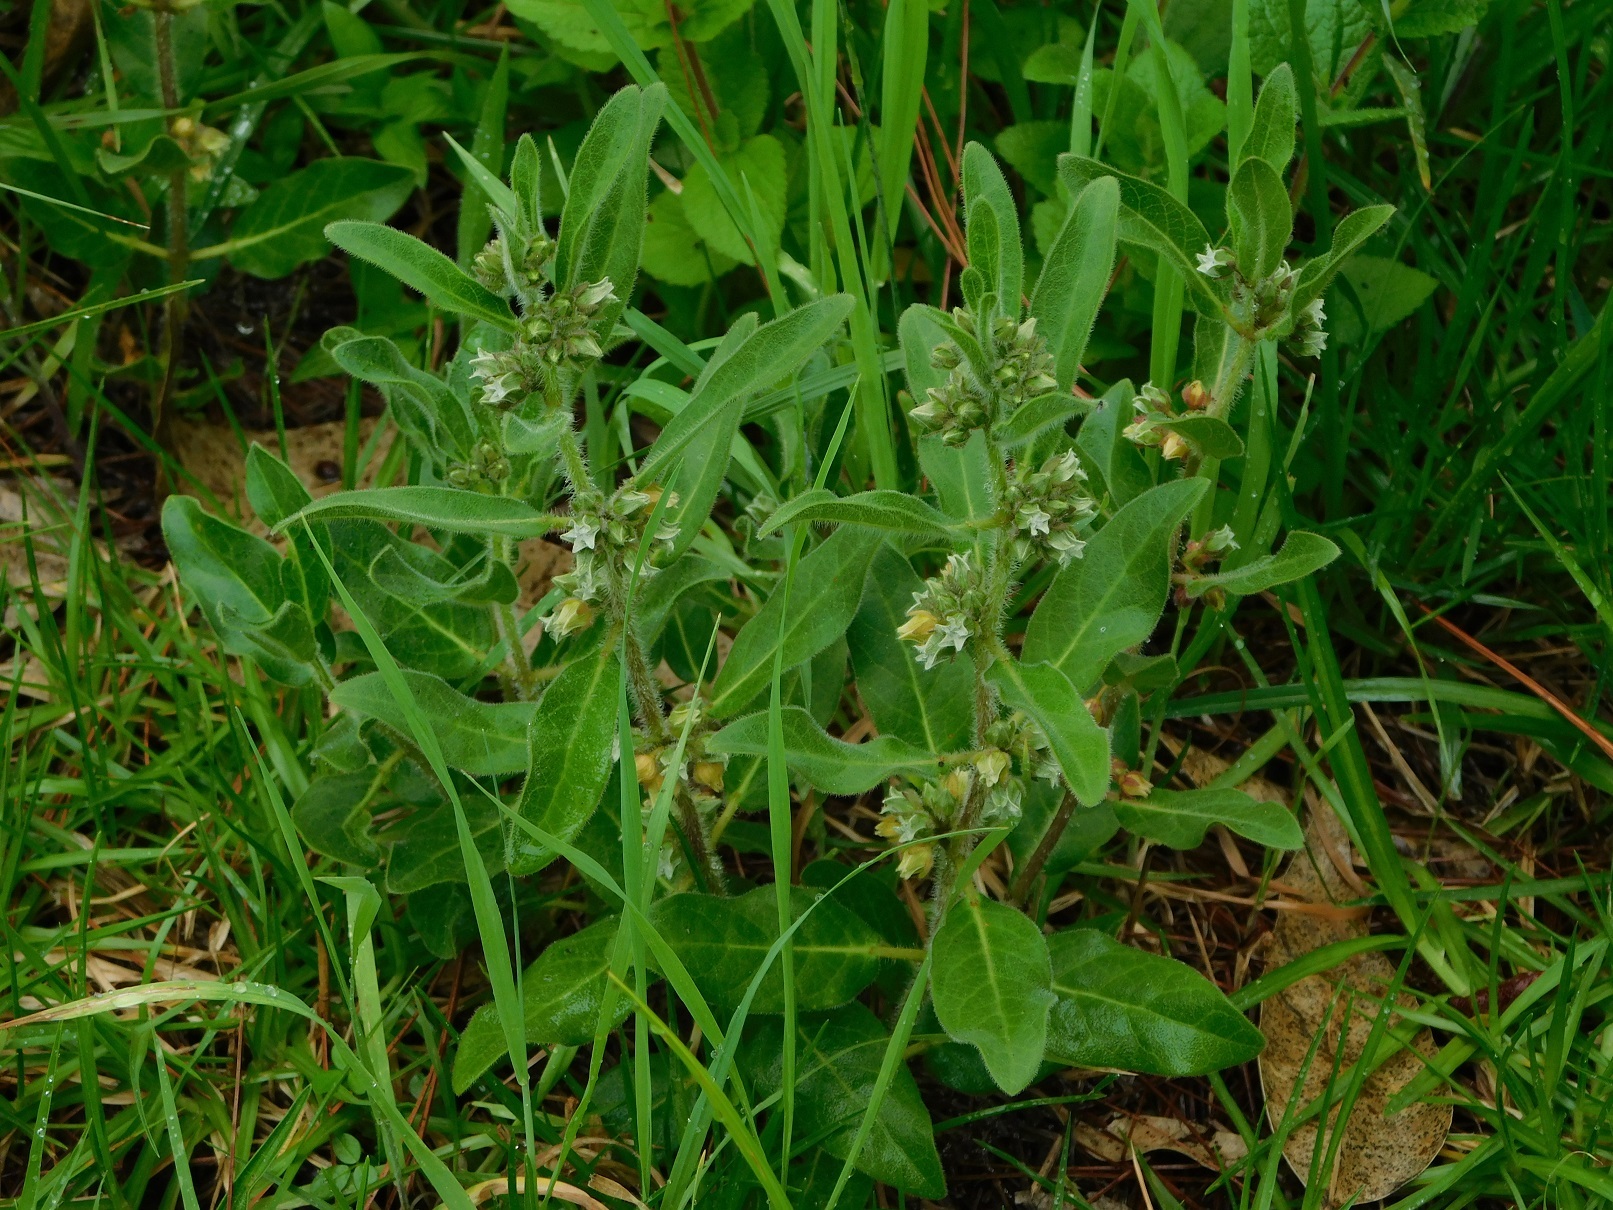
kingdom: Plantae
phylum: Tracheophyta
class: Magnoliopsida
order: Gentianales
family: Apocynaceae
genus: Pherotrichis
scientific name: Pherotrichis villosa
